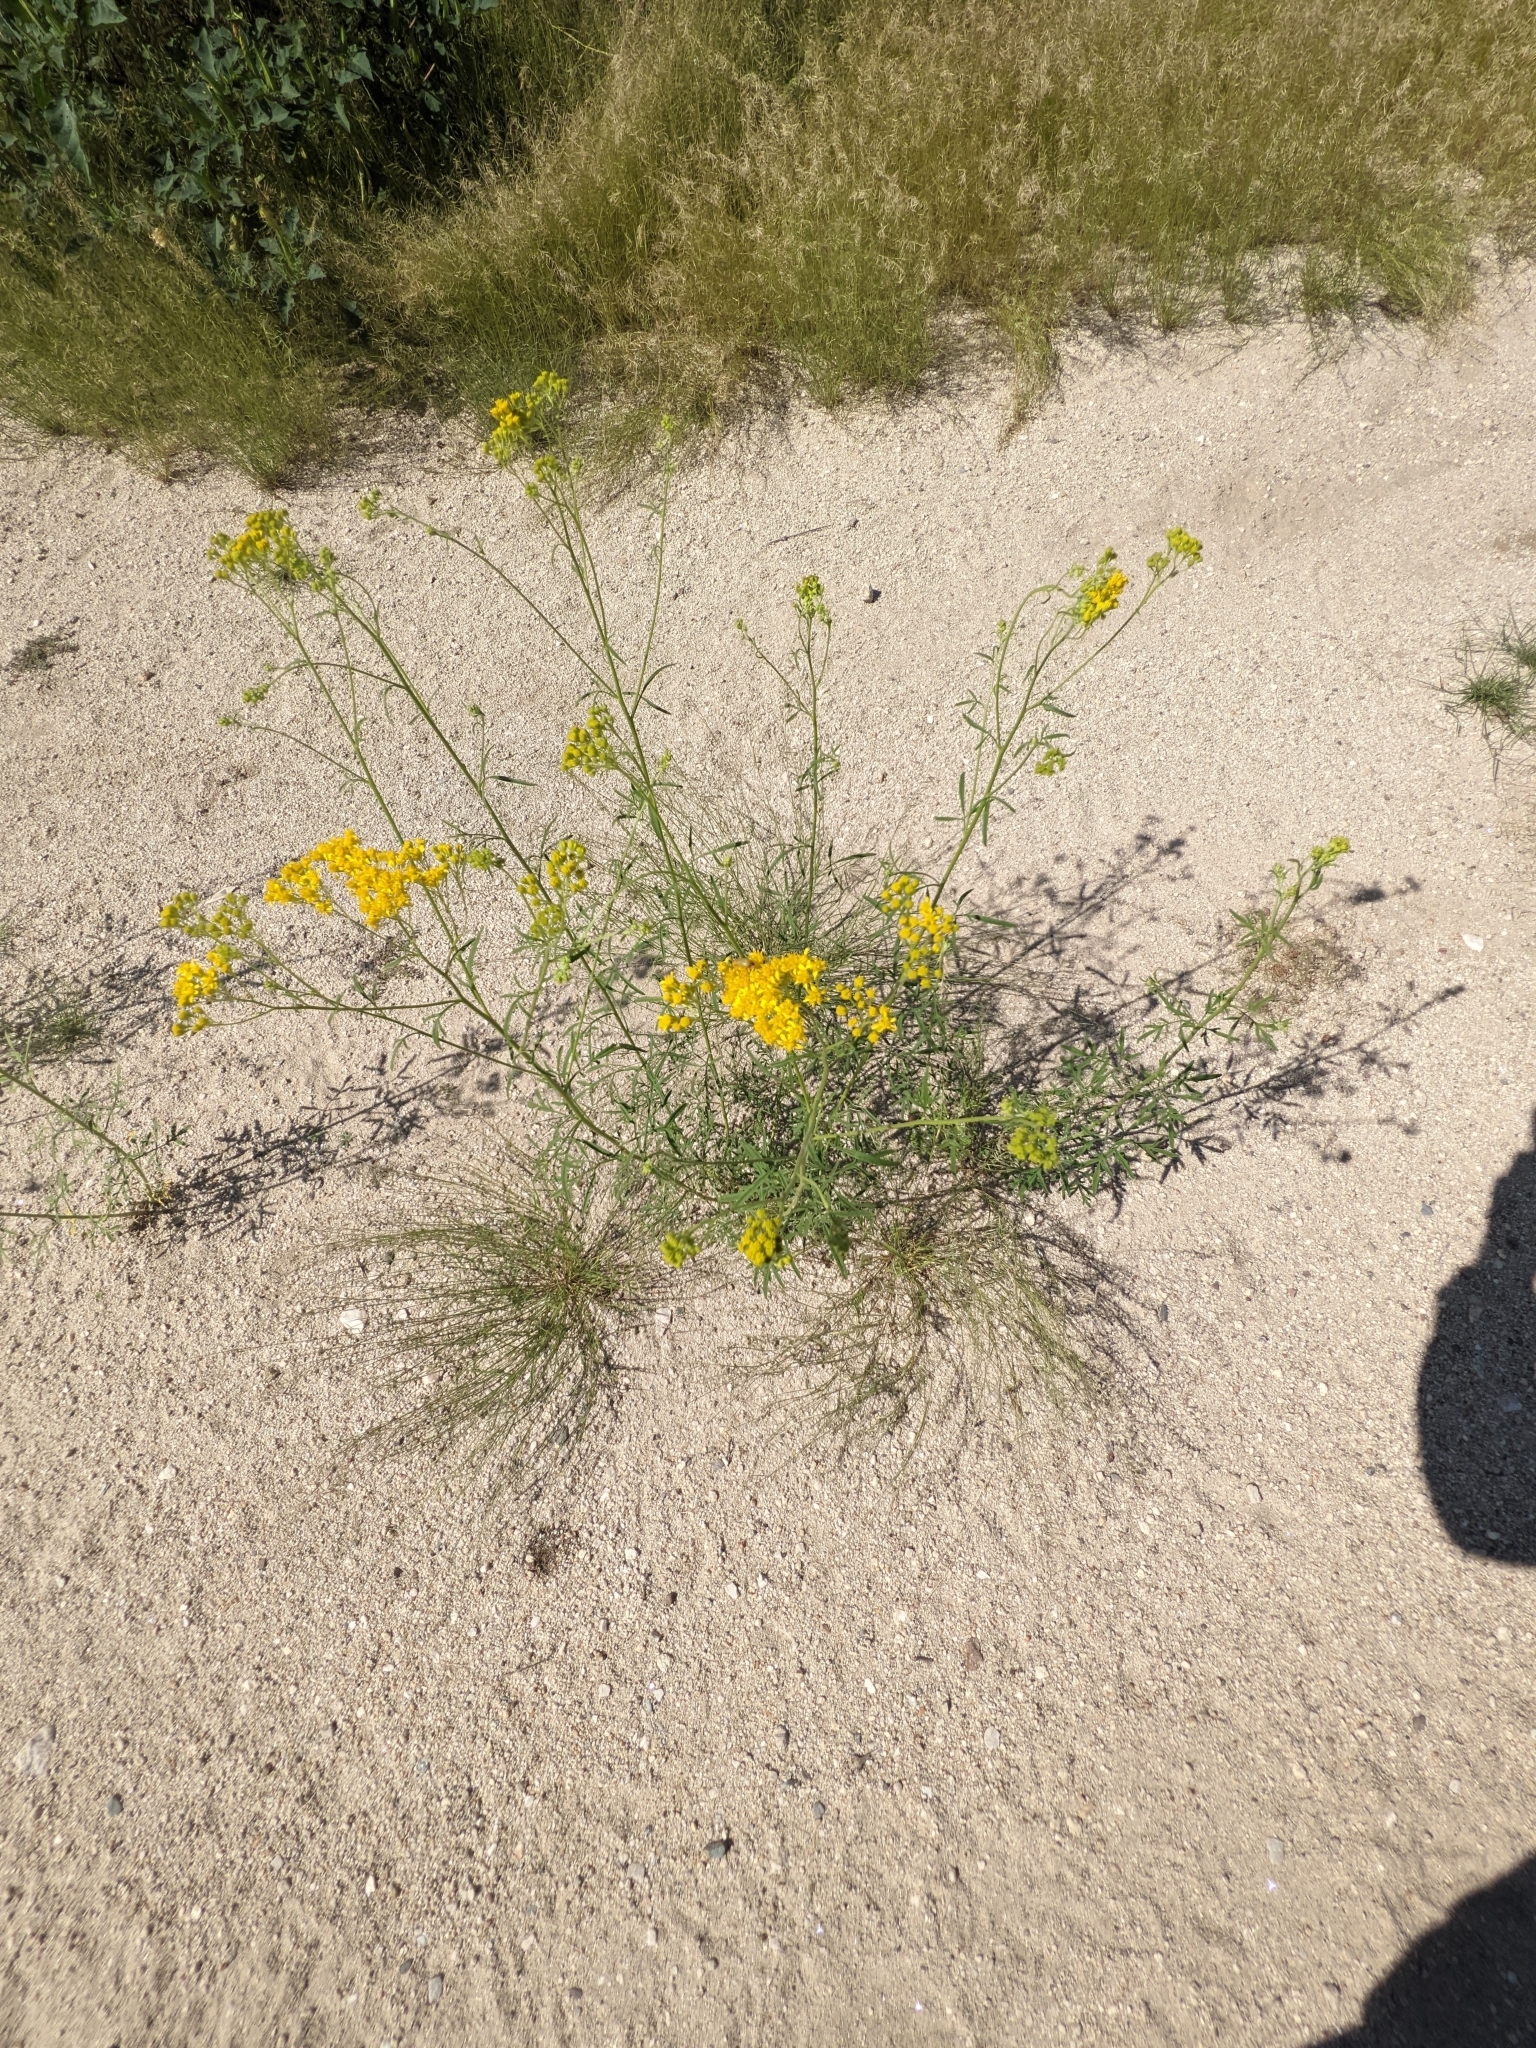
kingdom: Plantae
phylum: Tracheophyta
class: Magnoliopsida
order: Asterales
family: Asteraceae
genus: Hymenothrix
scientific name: Hymenothrix dissecta
